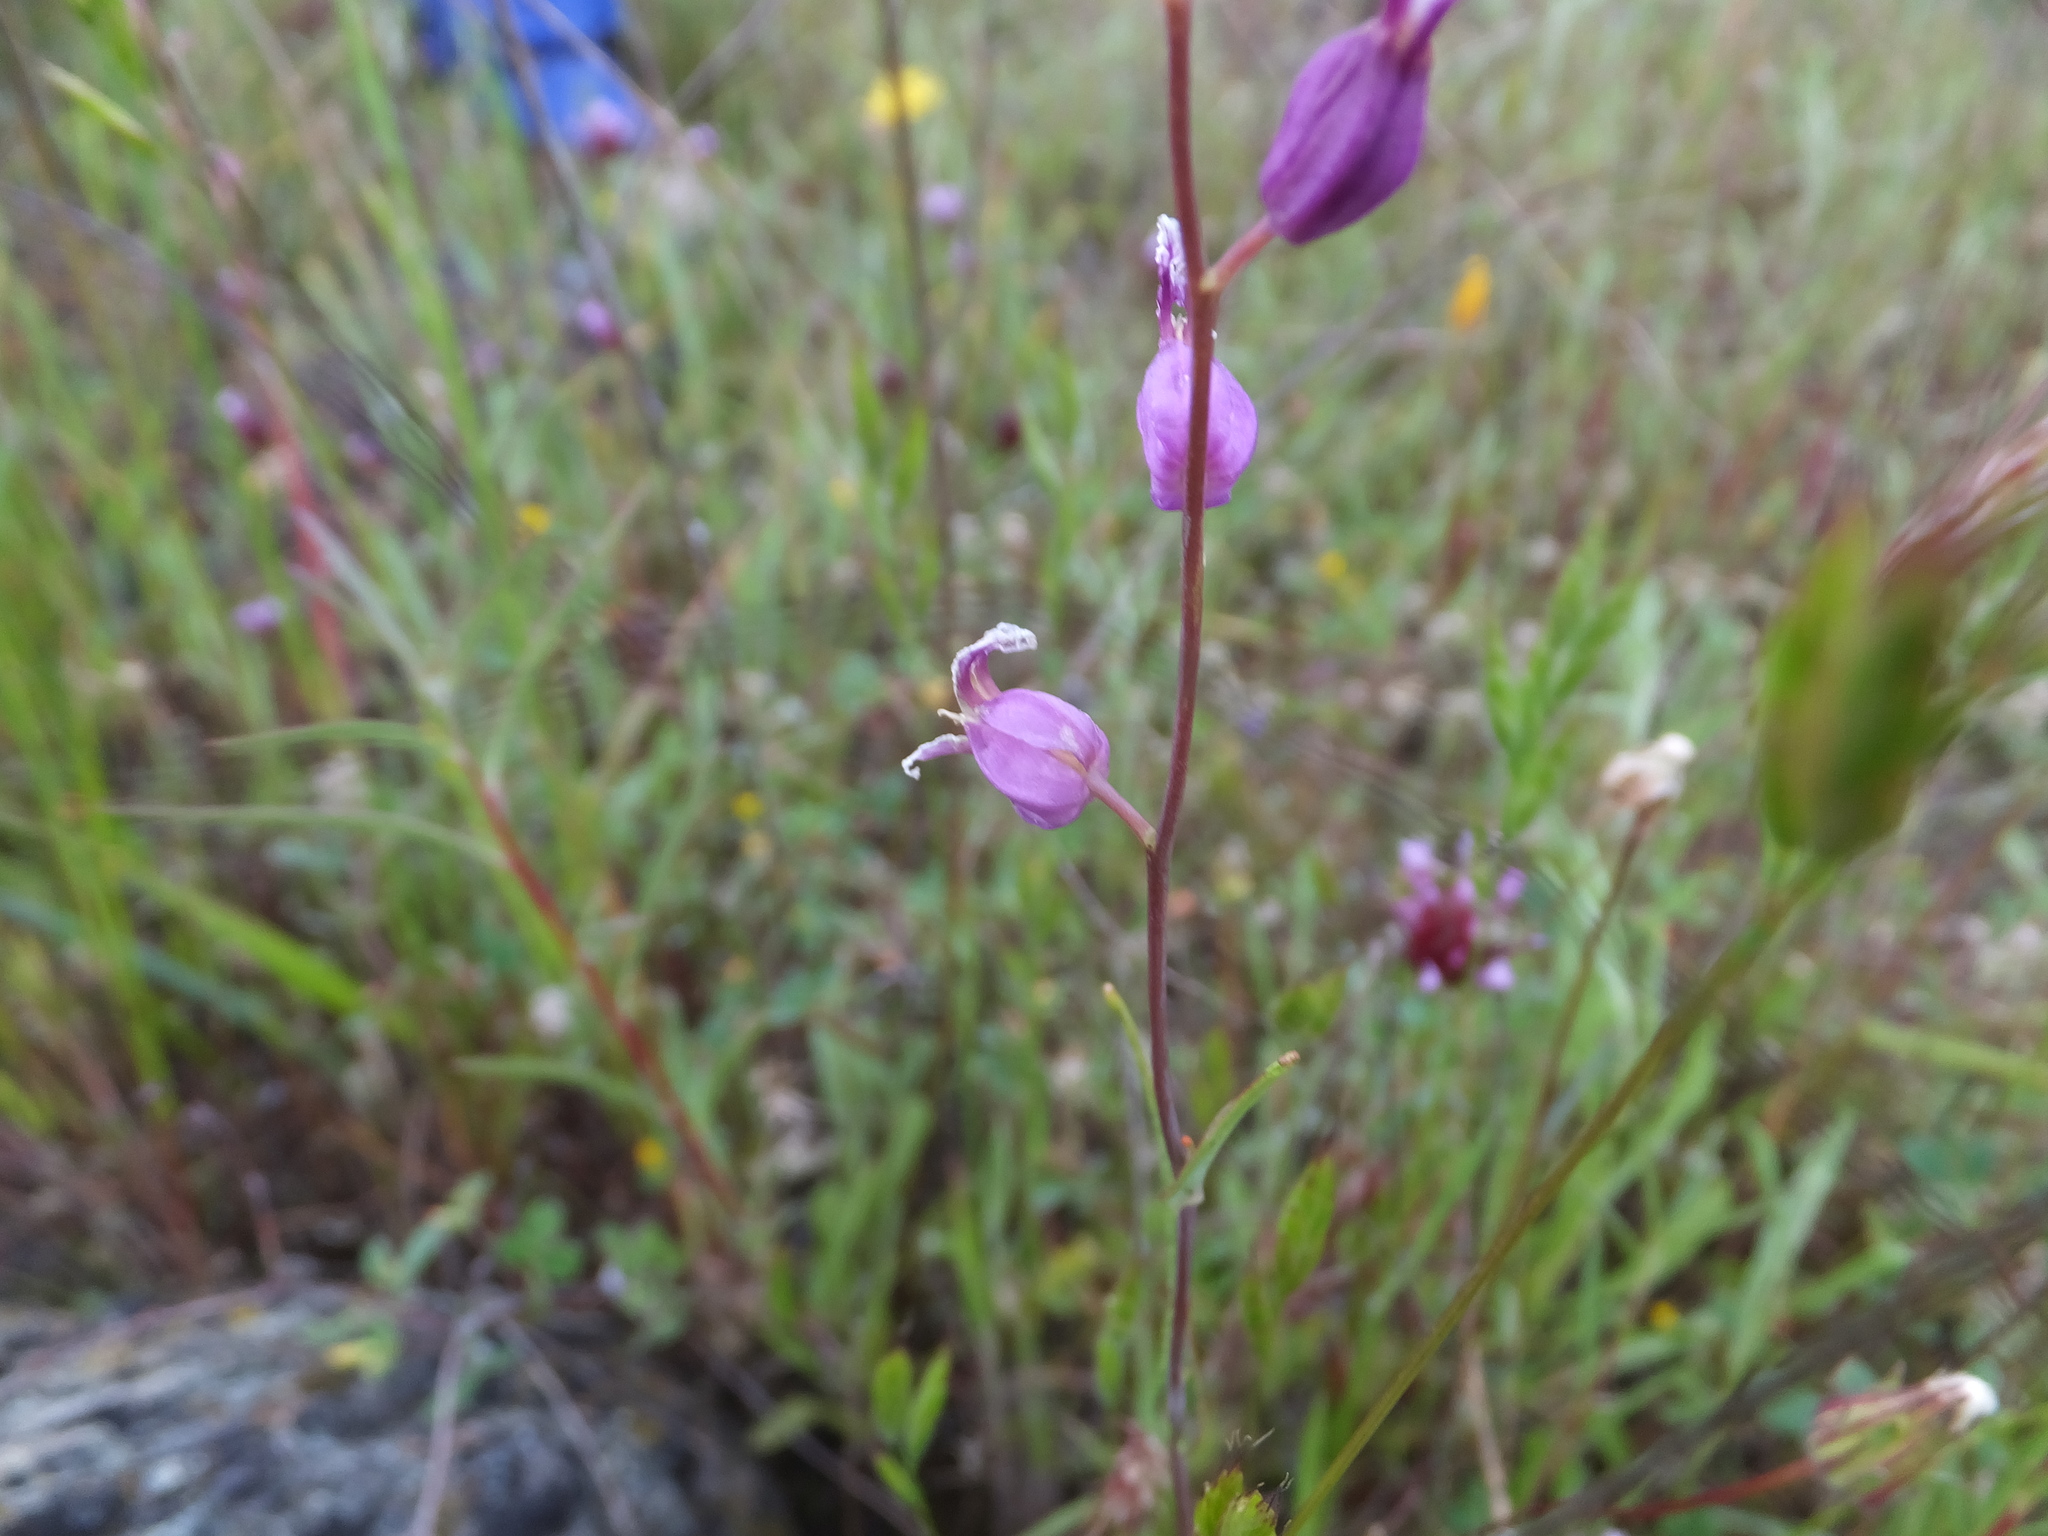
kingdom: Plantae
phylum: Tracheophyta
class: Magnoliopsida
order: Brassicales
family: Brassicaceae
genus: Streptanthus
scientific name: Streptanthus glandulosus
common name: Jewel-flower
